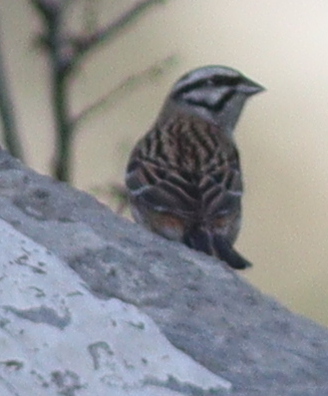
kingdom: Animalia
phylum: Chordata
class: Aves
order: Passeriformes
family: Emberizidae
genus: Emberiza
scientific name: Emberiza cia
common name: Rock bunting
